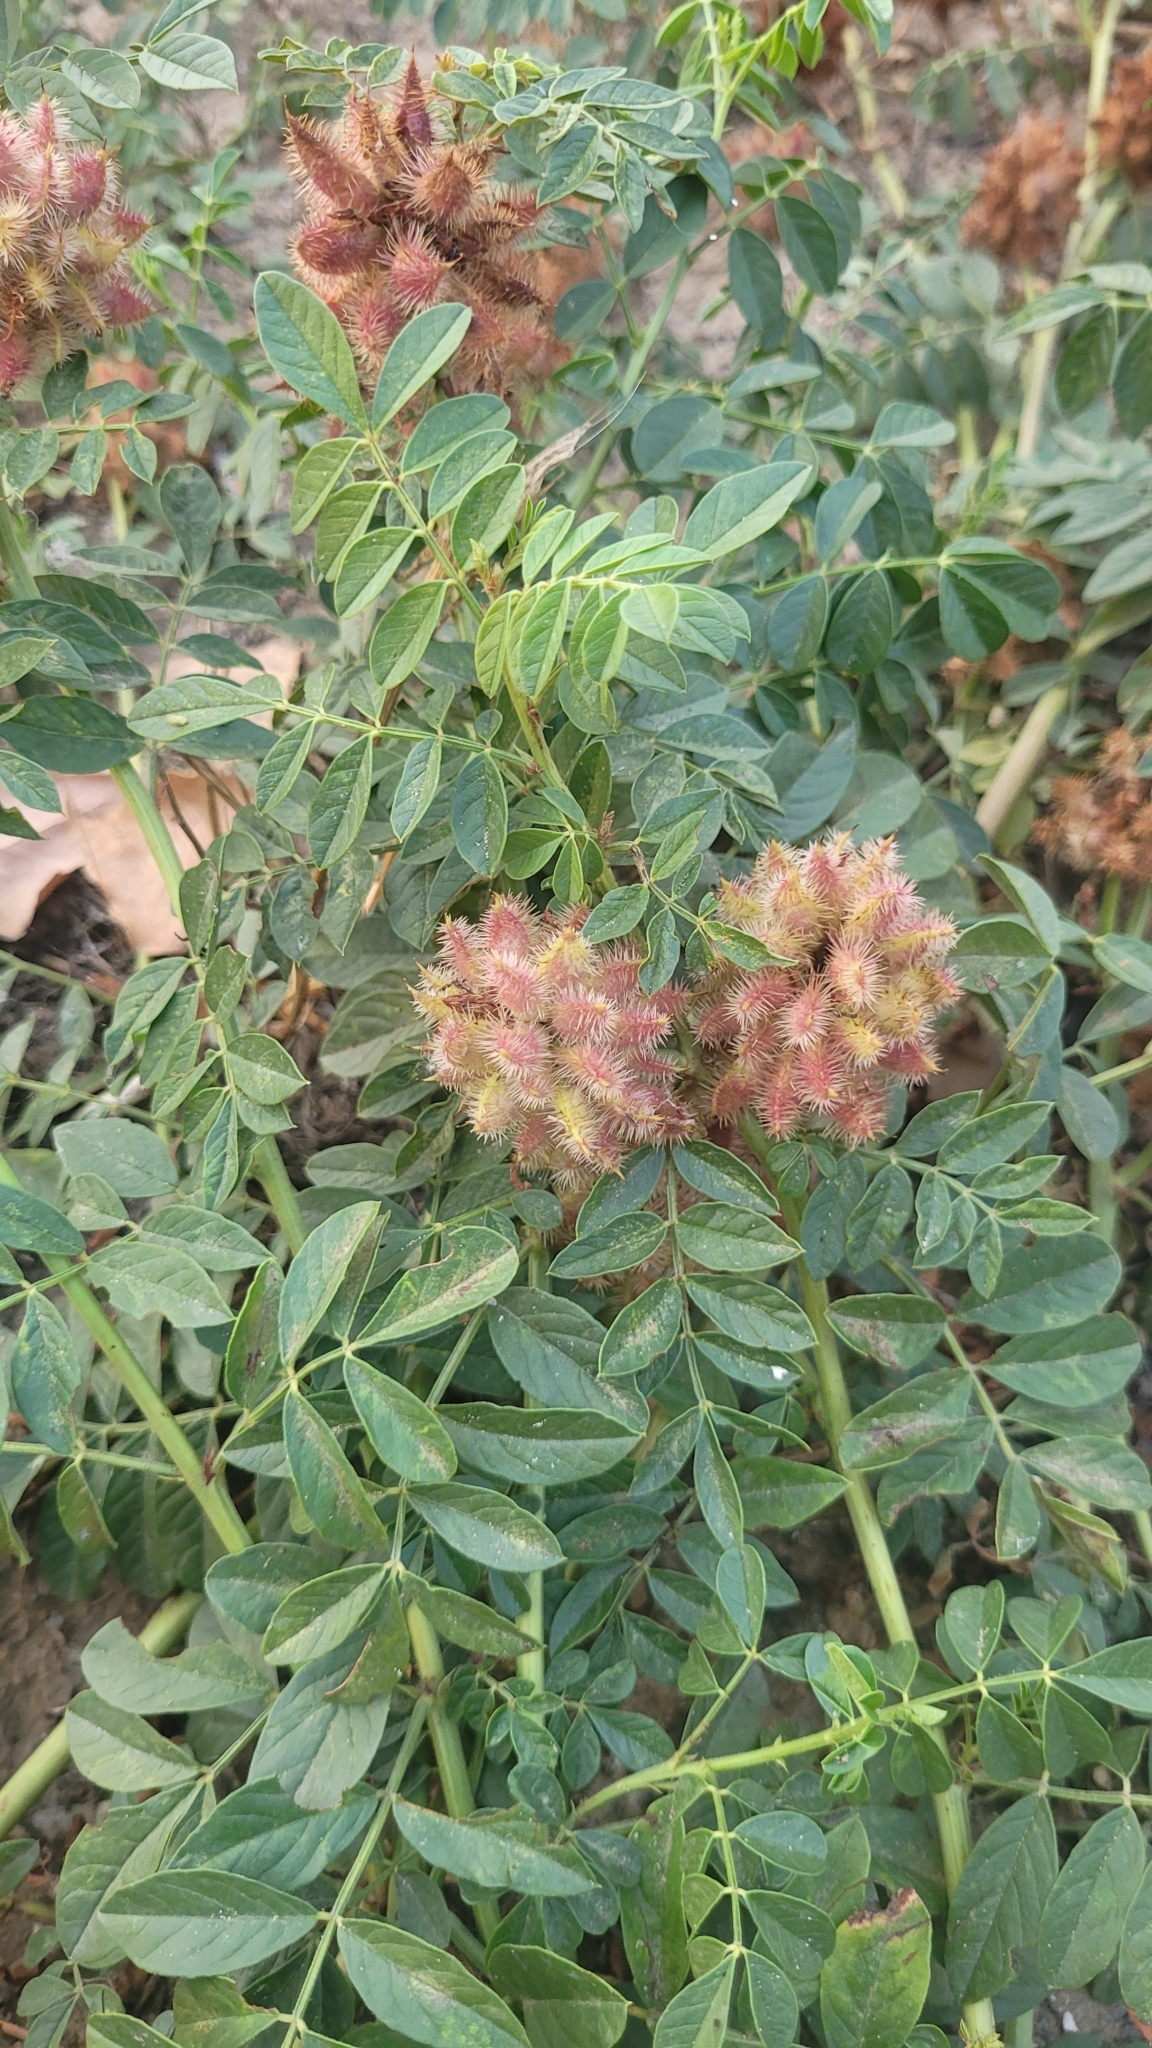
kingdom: Plantae
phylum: Tracheophyta
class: Magnoliopsida
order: Fabales
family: Fabaceae
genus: Glycyrrhiza
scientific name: Glycyrrhiza echinata
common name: German liquorice
